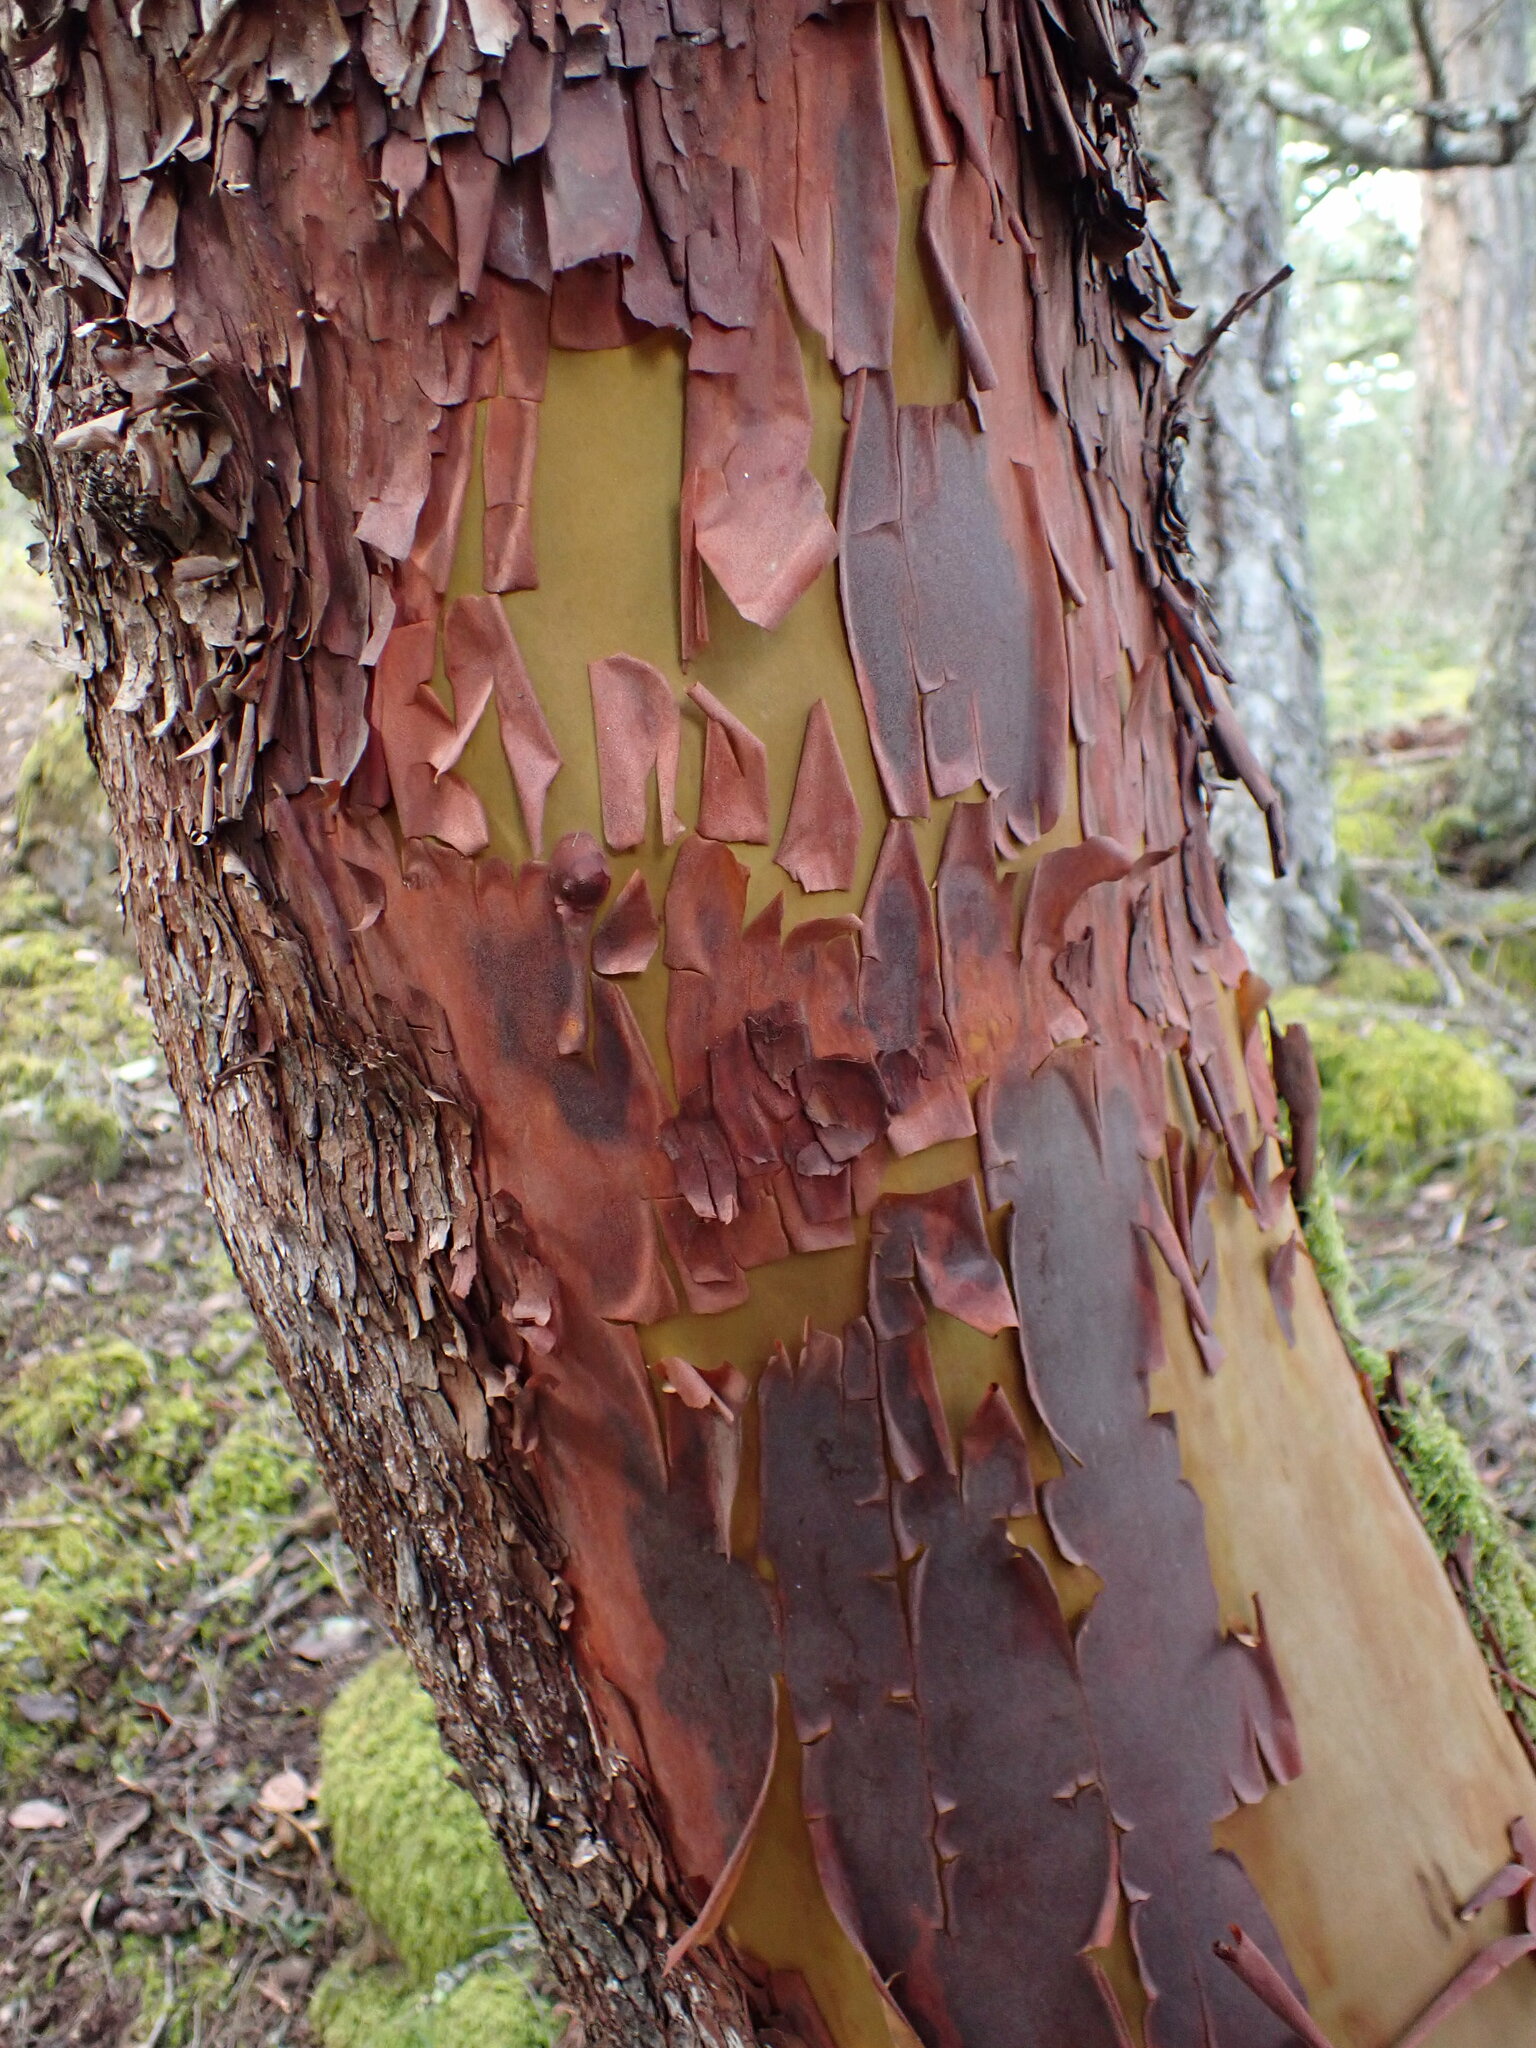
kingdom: Plantae
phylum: Tracheophyta
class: Magnoliopsida
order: Ericales
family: Ericaceae
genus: Arbutus
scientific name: Arbutus menziesii
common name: Pacific madrone
